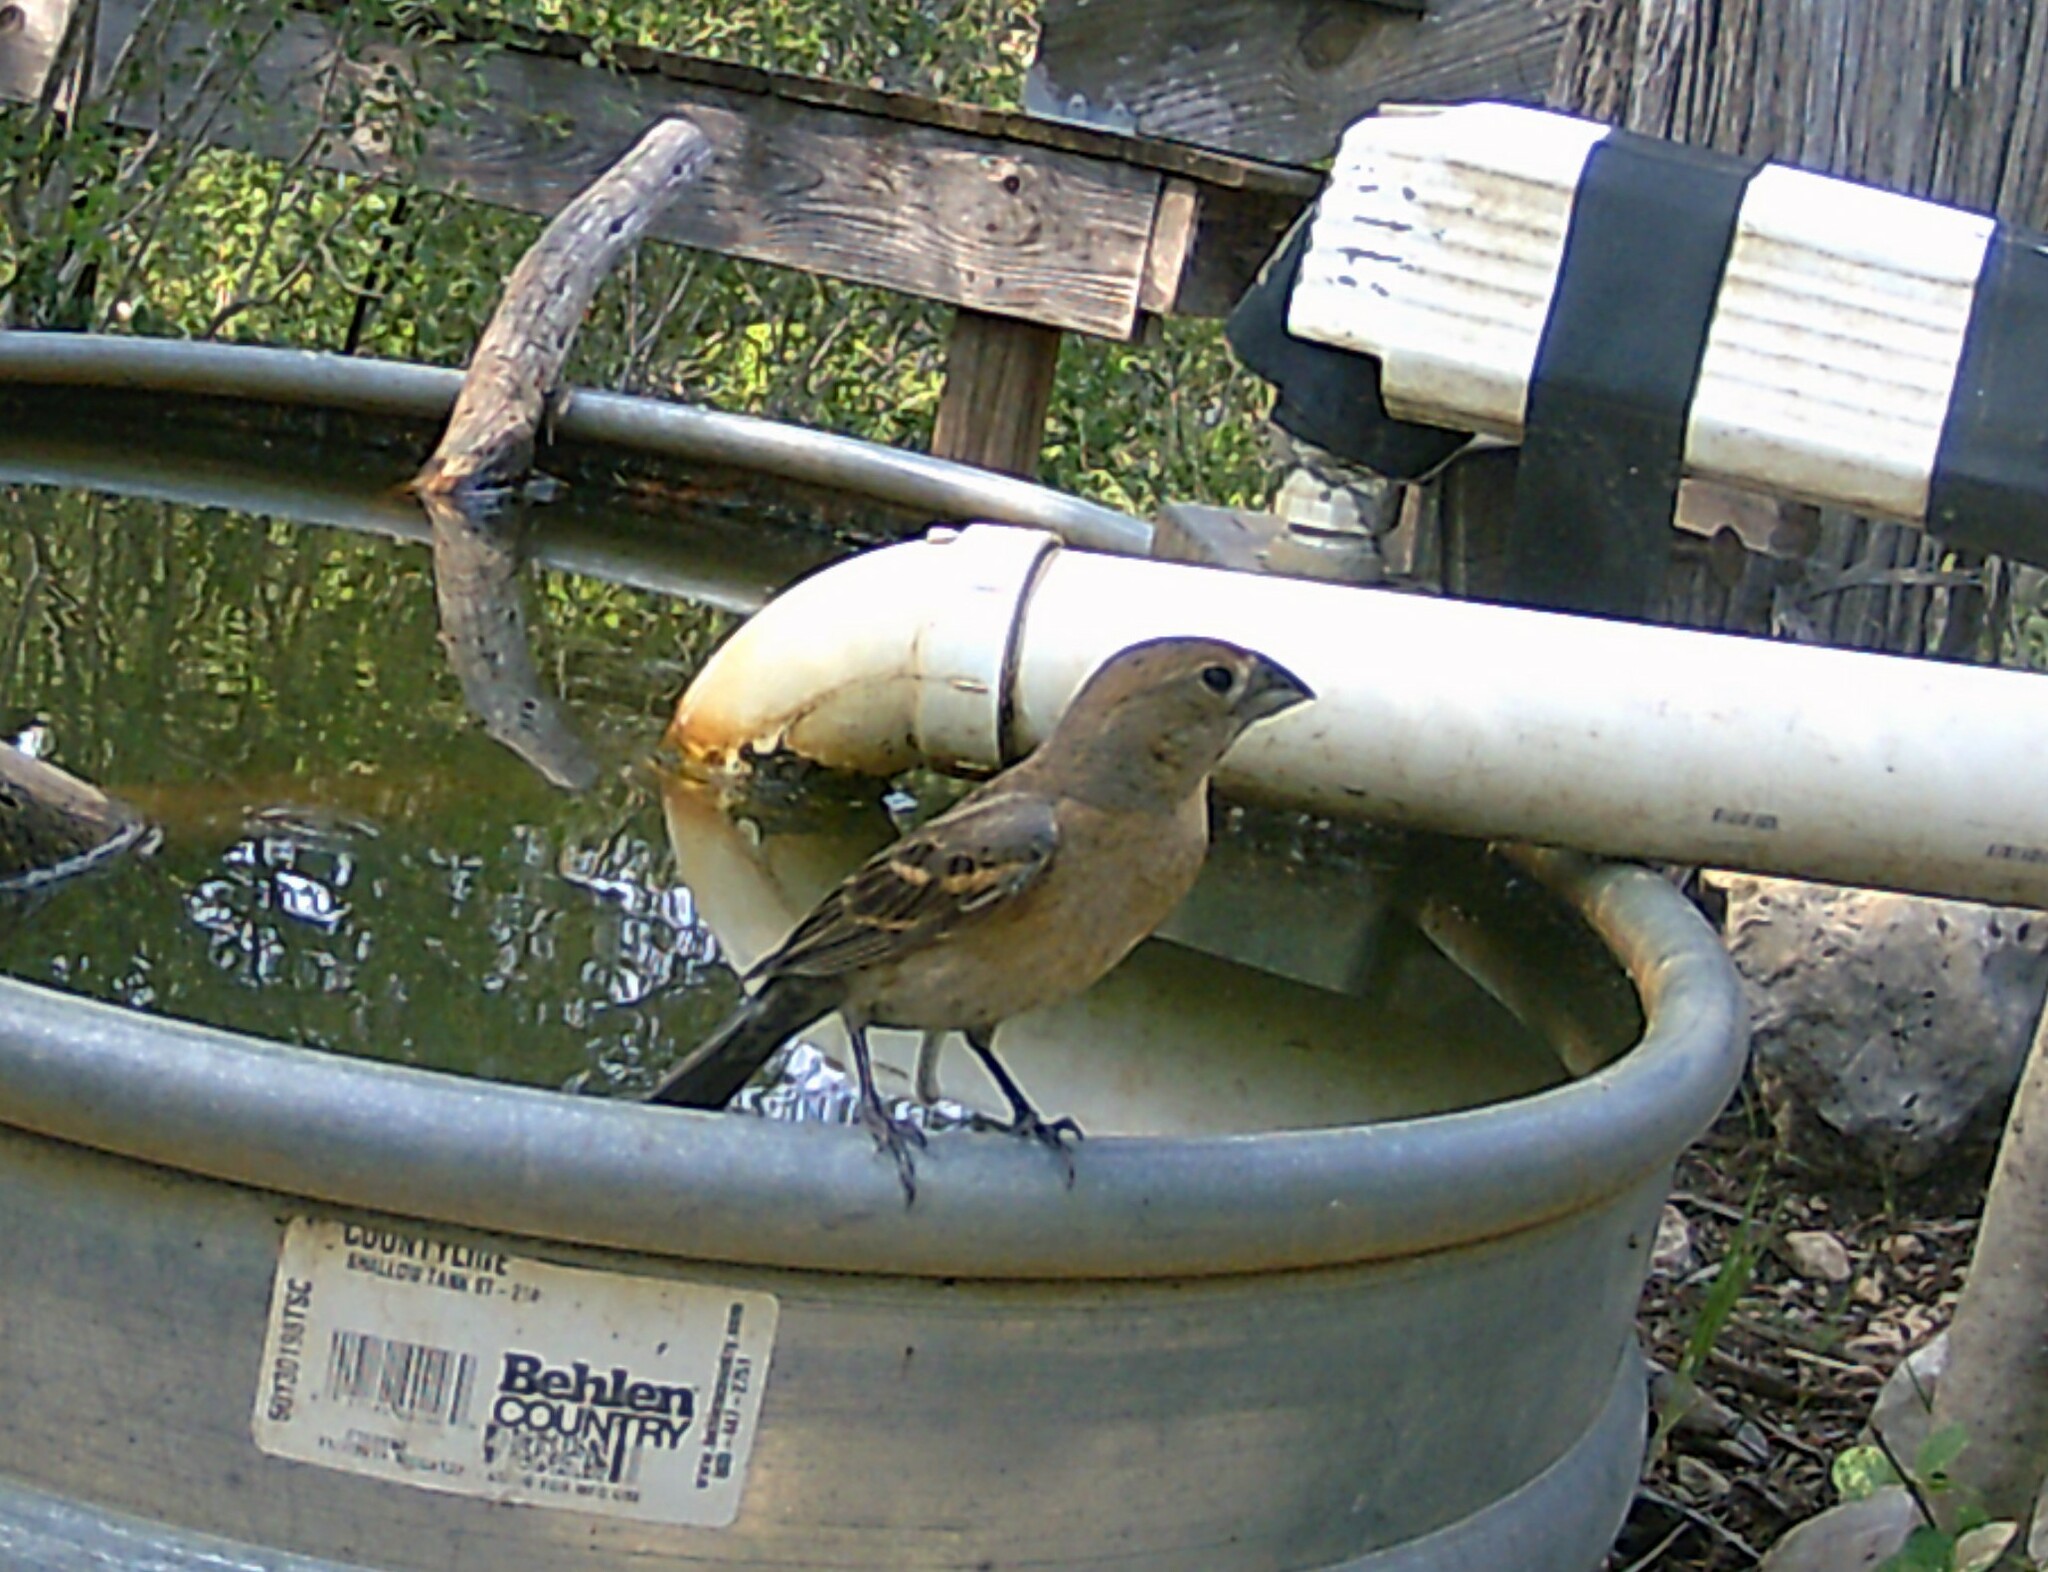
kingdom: Animalia
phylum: Chordata
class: Aves
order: Passeriformes
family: Cardinalidae
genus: Passerina
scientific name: Passerina caerulea
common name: Blue grosbeak
